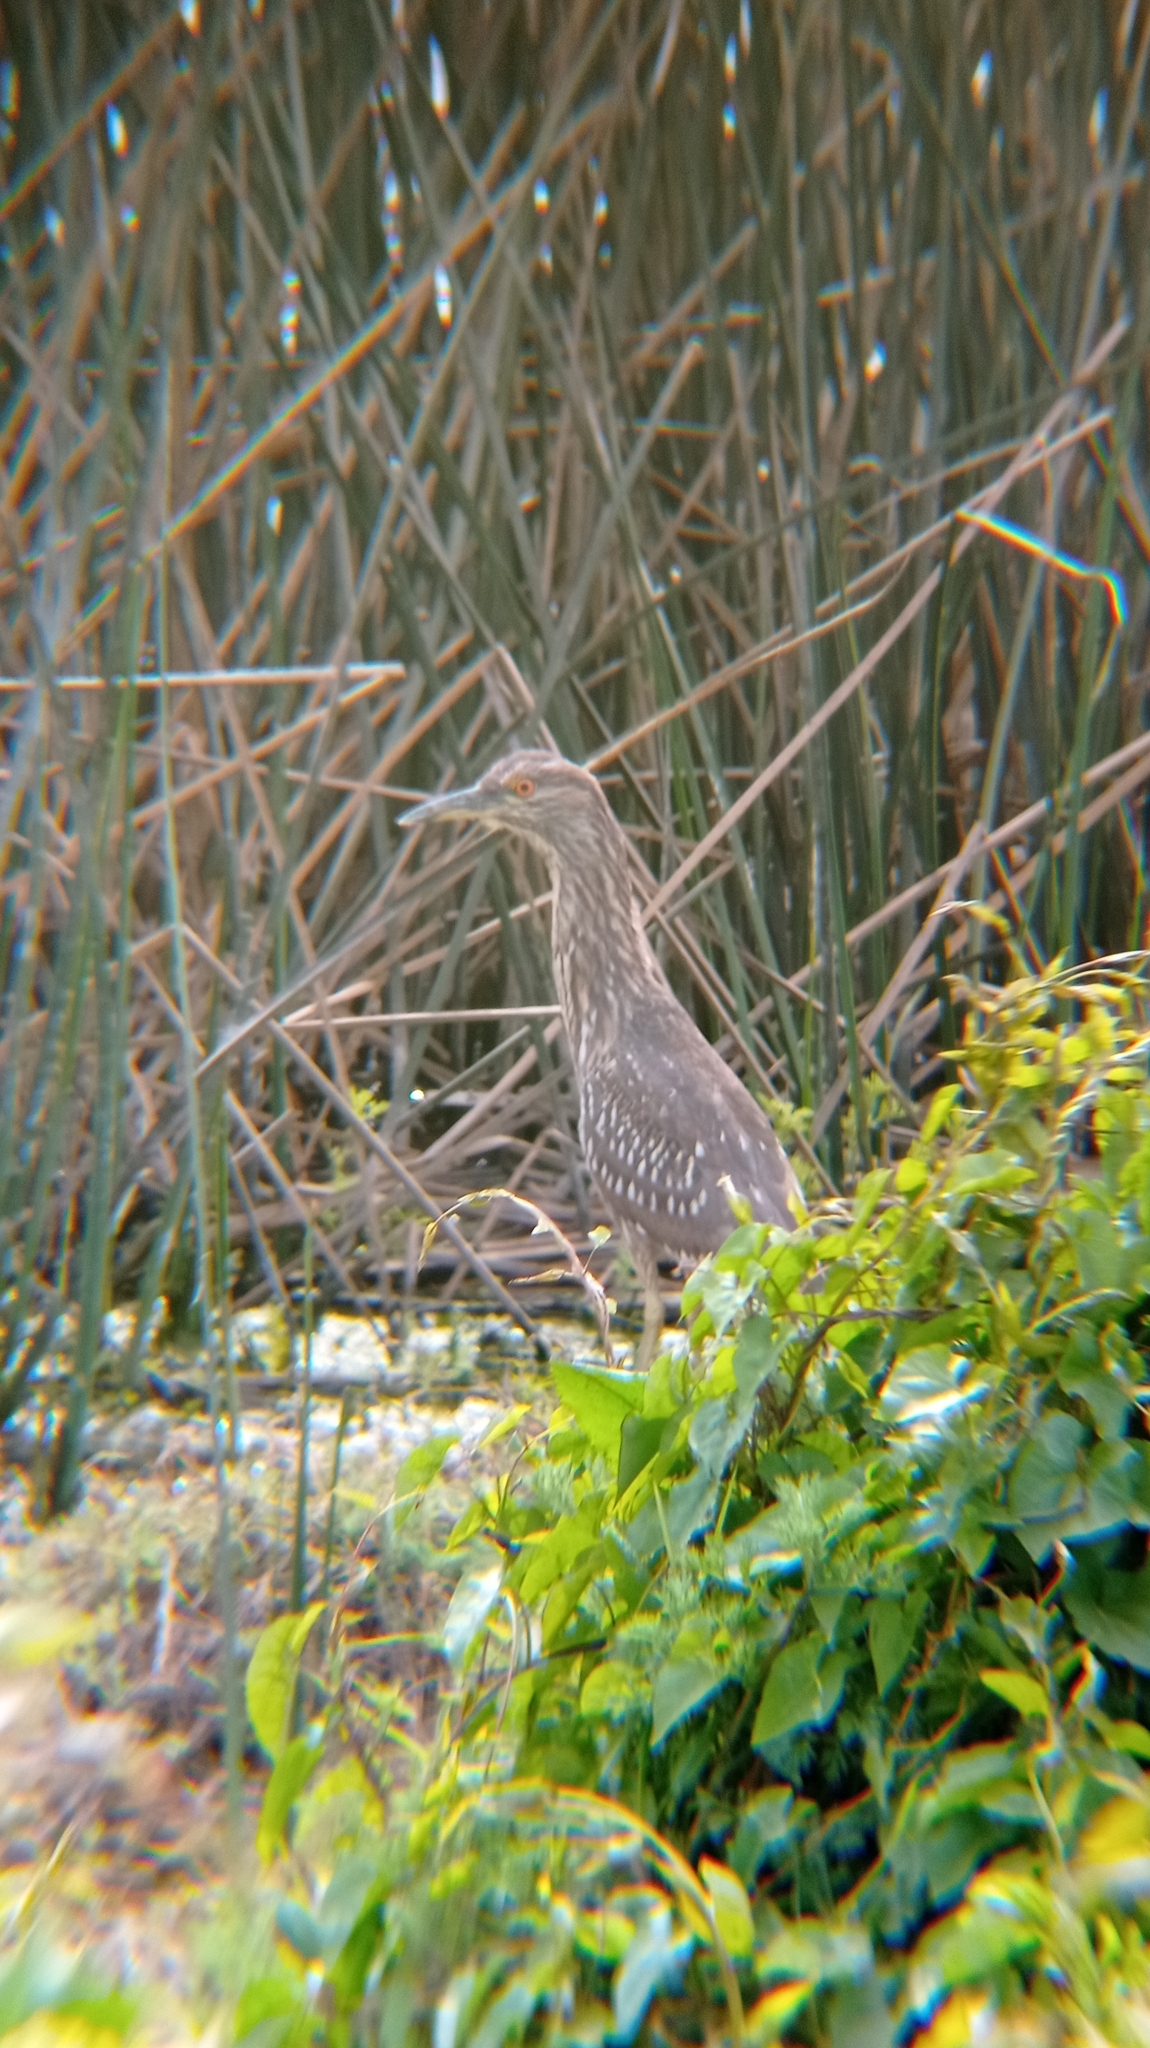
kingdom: Animalia
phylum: Chordata
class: Aves
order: Pelecaniformes
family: Ardeidae
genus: Nycticorax
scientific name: Nycticorax nycticorax
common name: Black-crowned night heron
